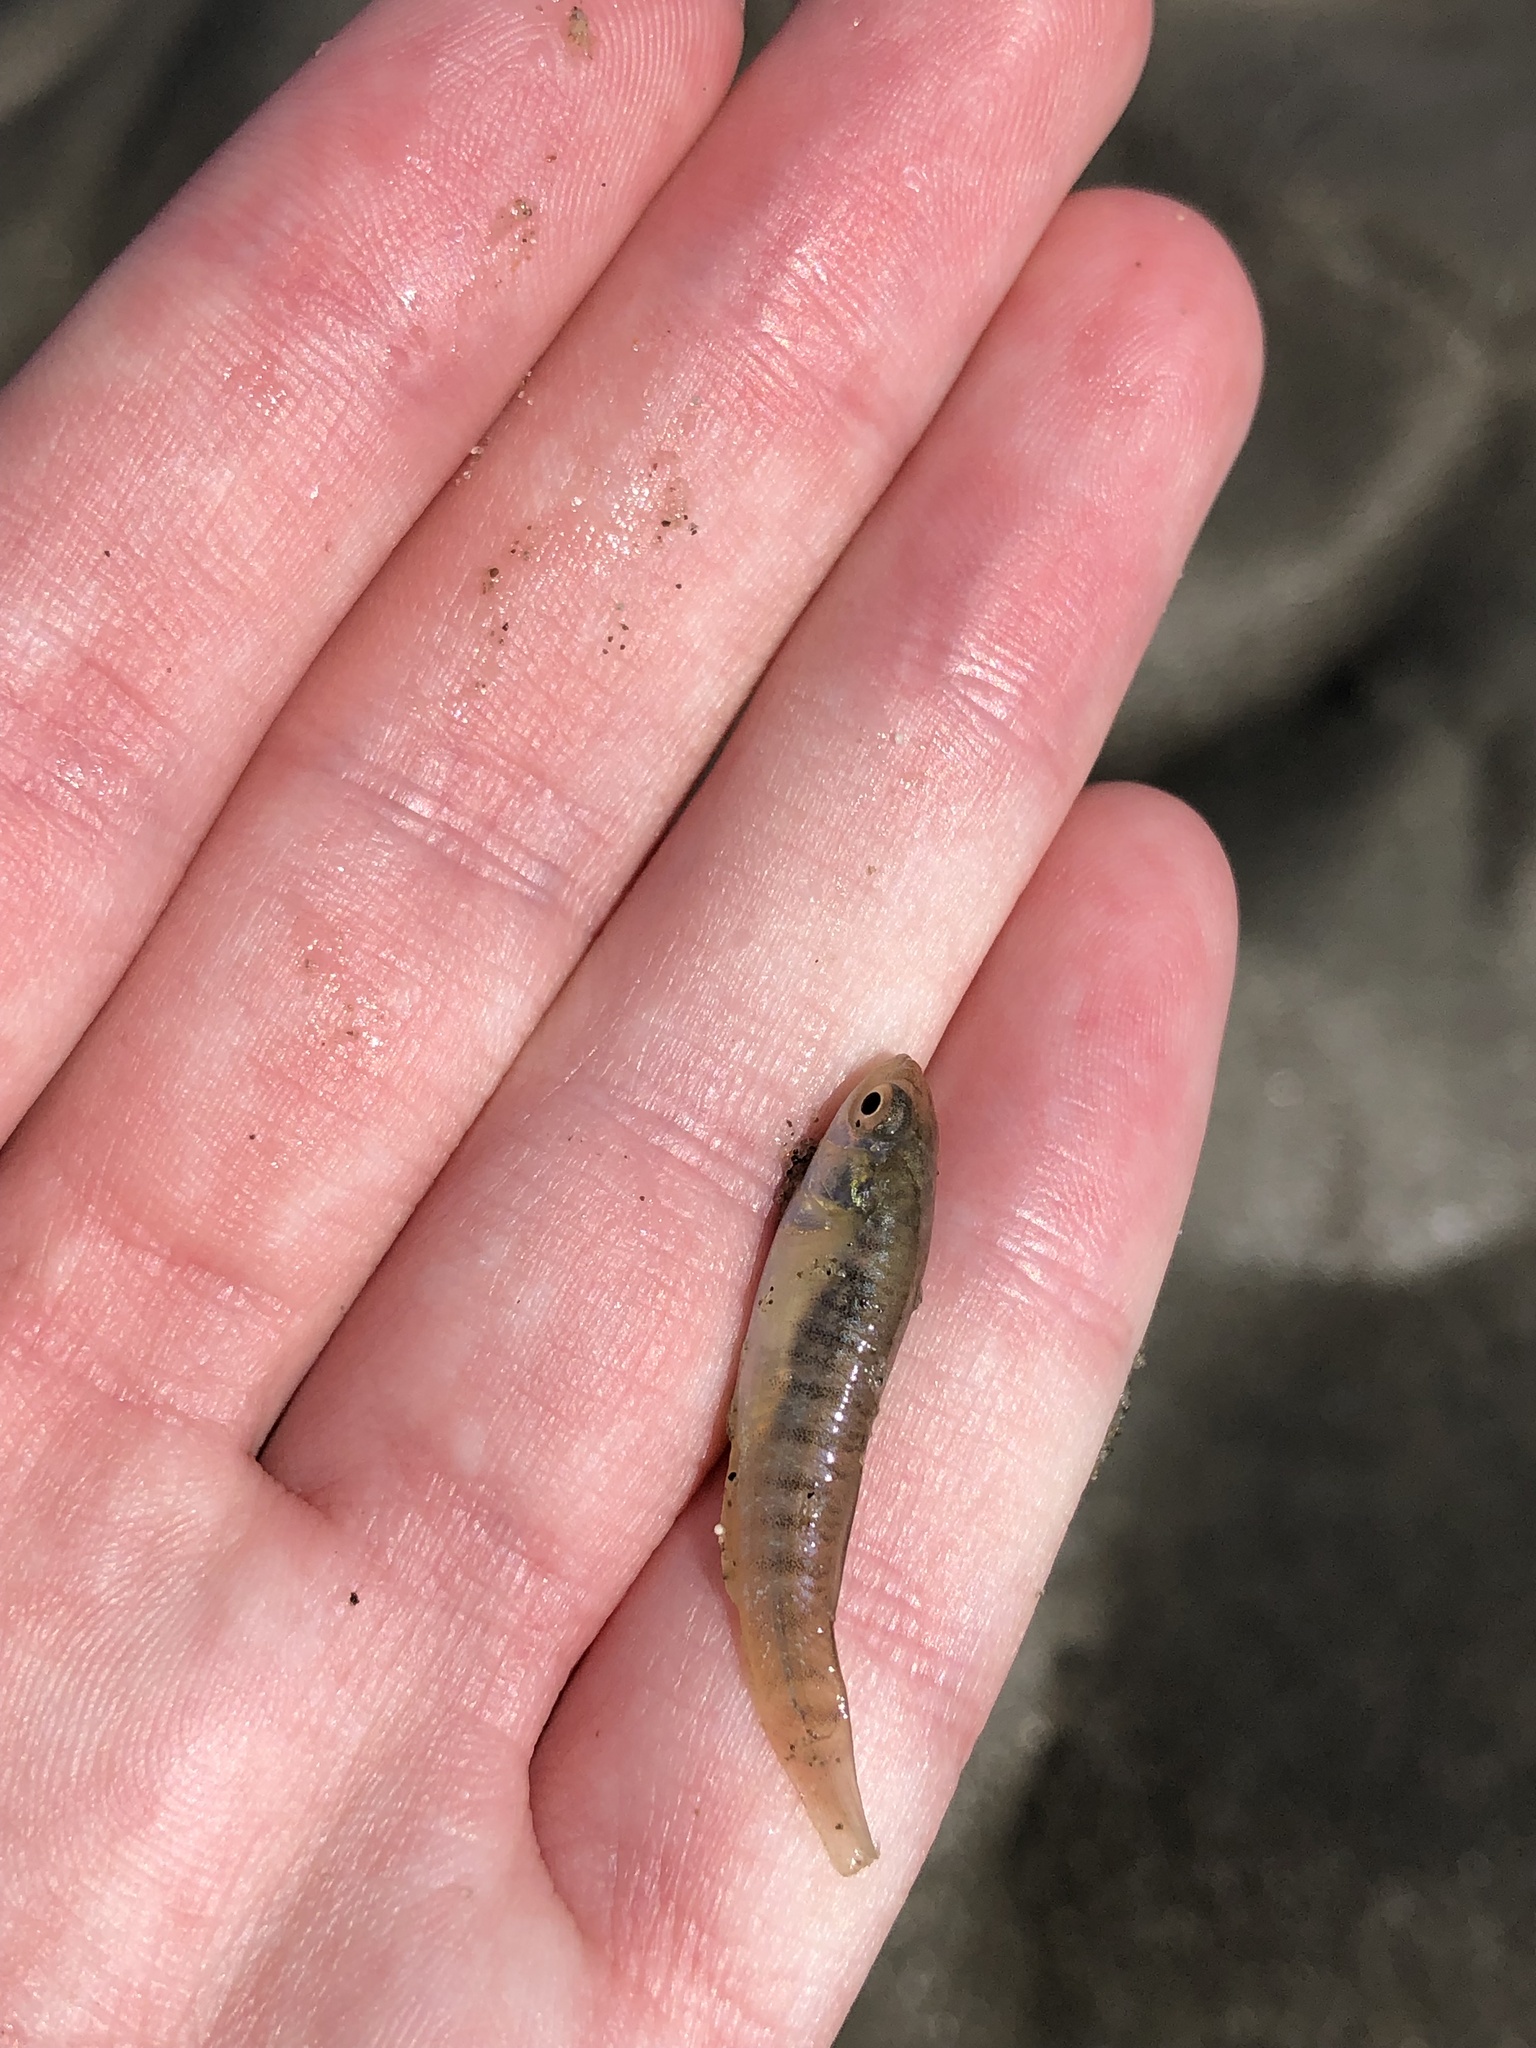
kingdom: Animalia
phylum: Chordata
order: Cyprinodontiformes
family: Fundulidae
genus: Fundulus
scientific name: Fundulus heteroclitus
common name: Mummichog
